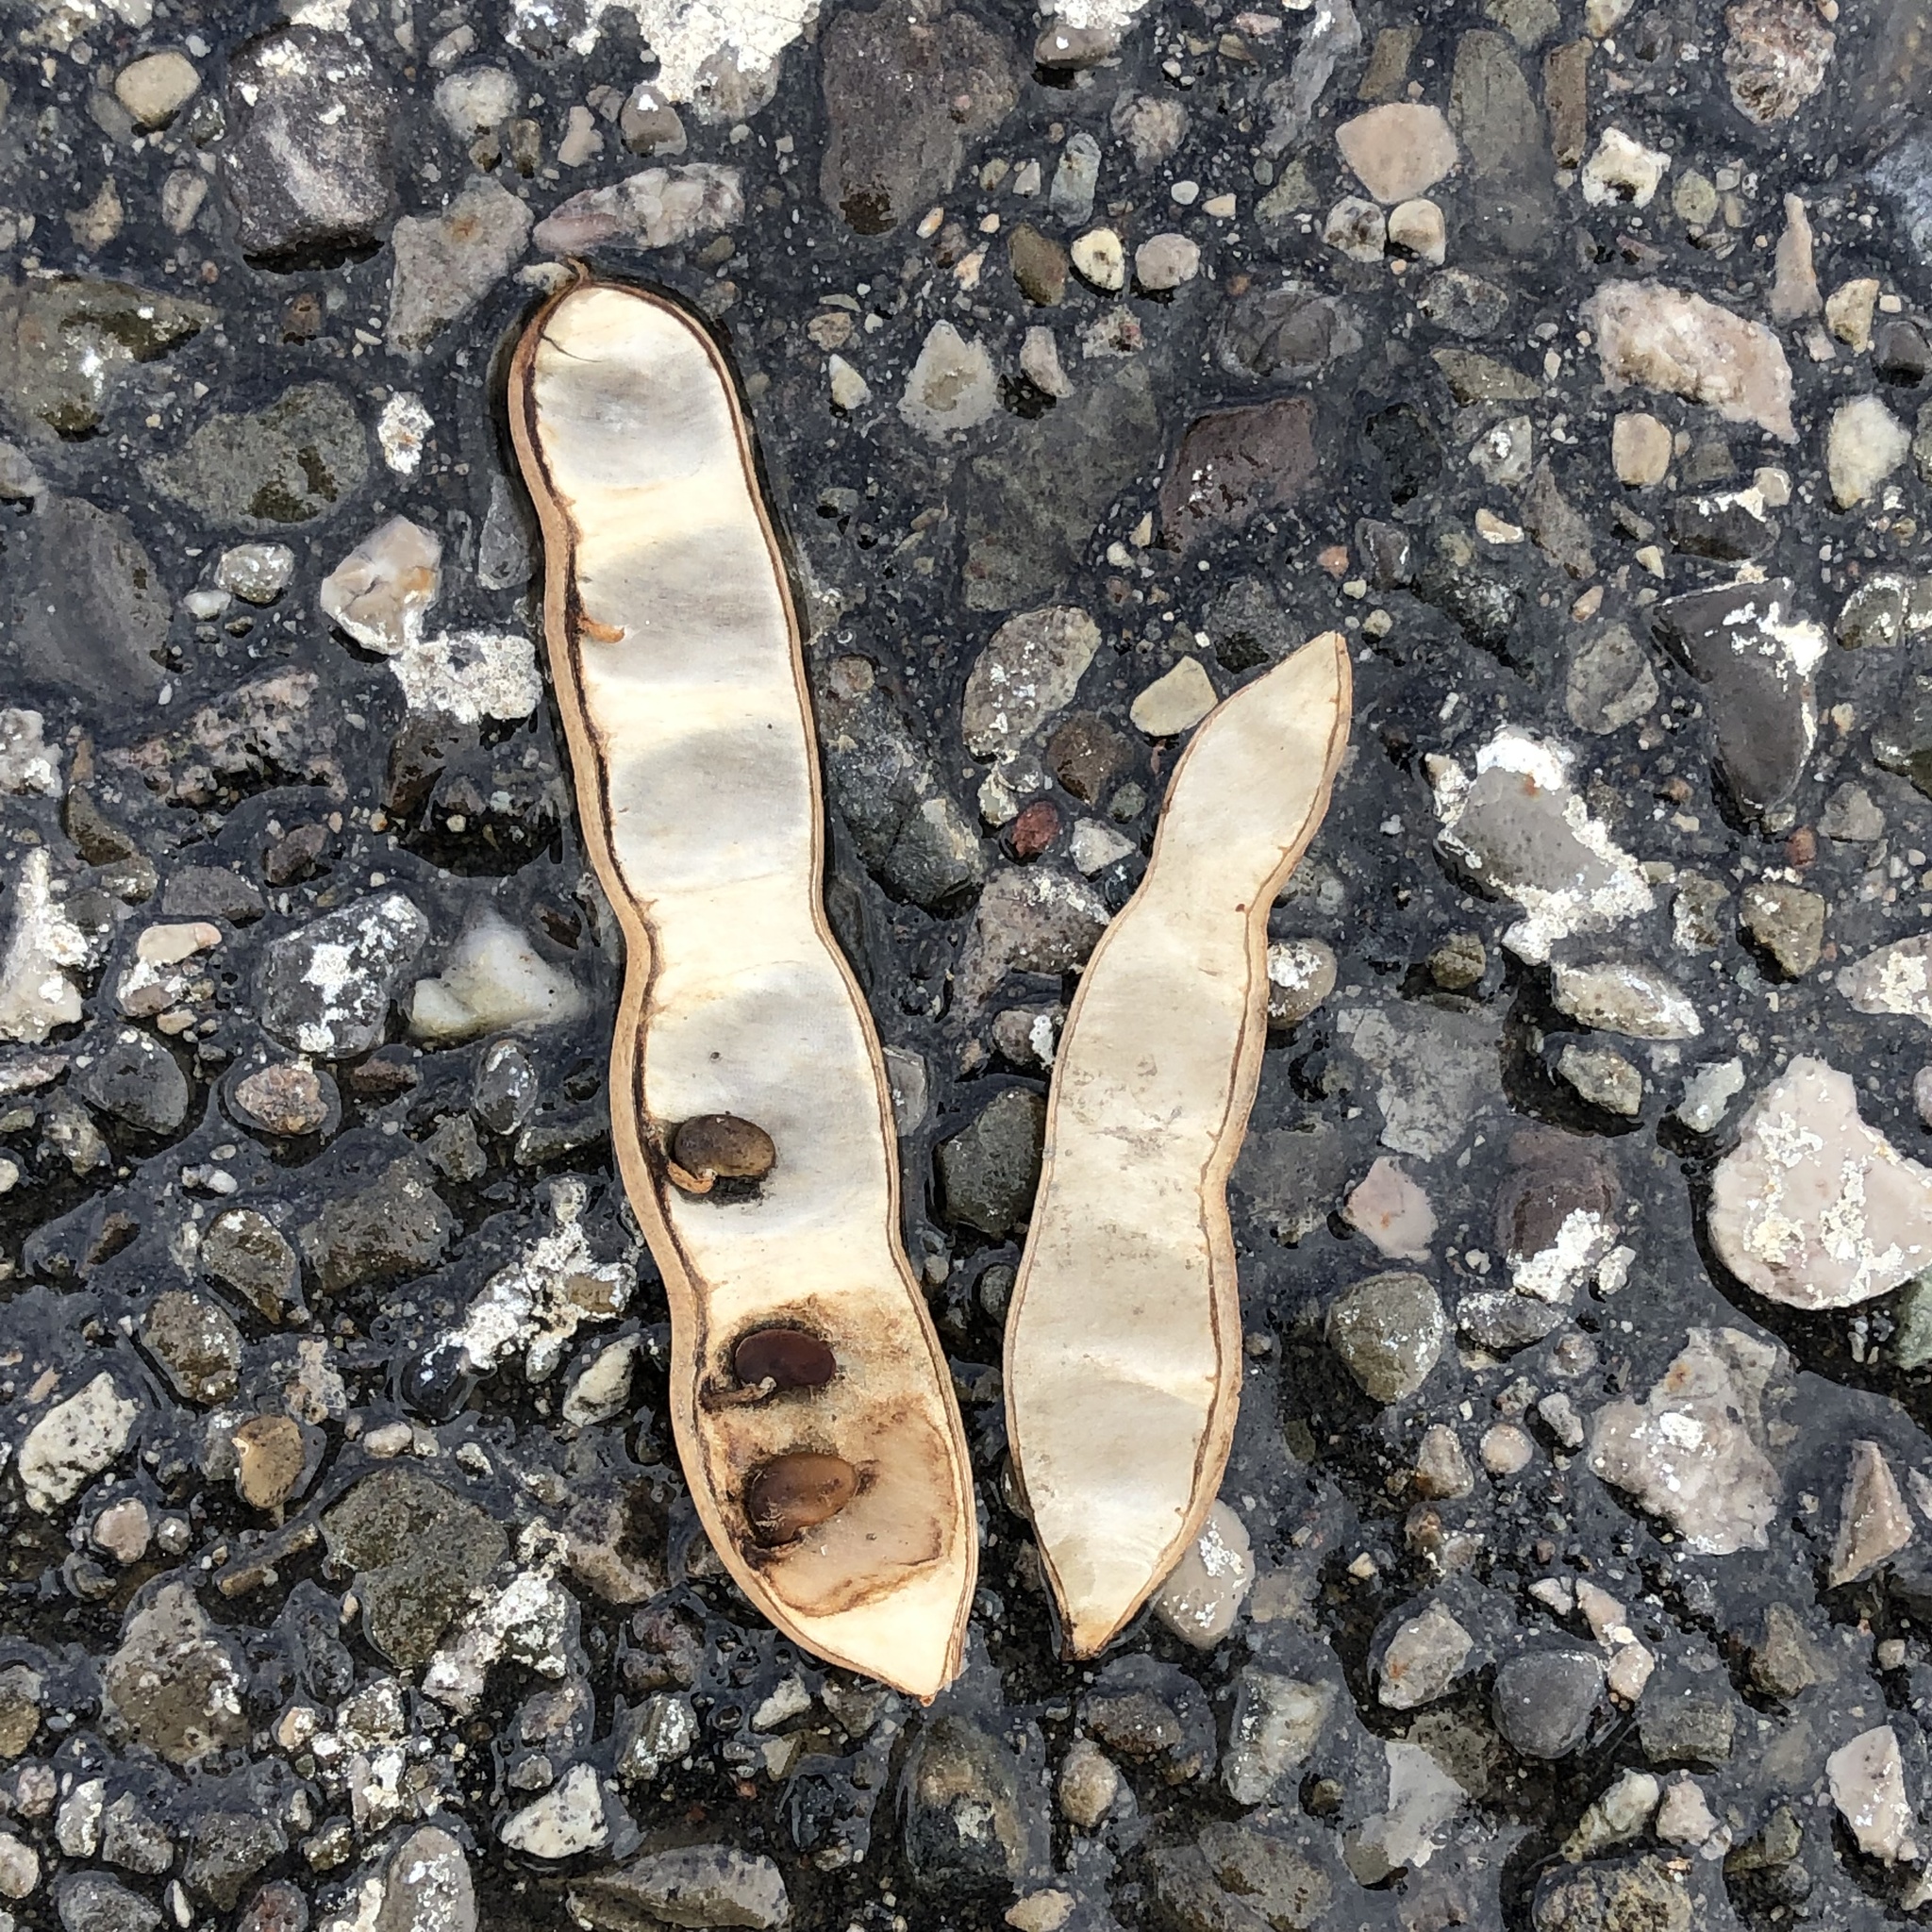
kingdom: Plantae
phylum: Tracheophyta
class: Magnoliopsida
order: Fabales
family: Fabaceae
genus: Robinia
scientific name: Robinia pseudoacacia
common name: Black locust
